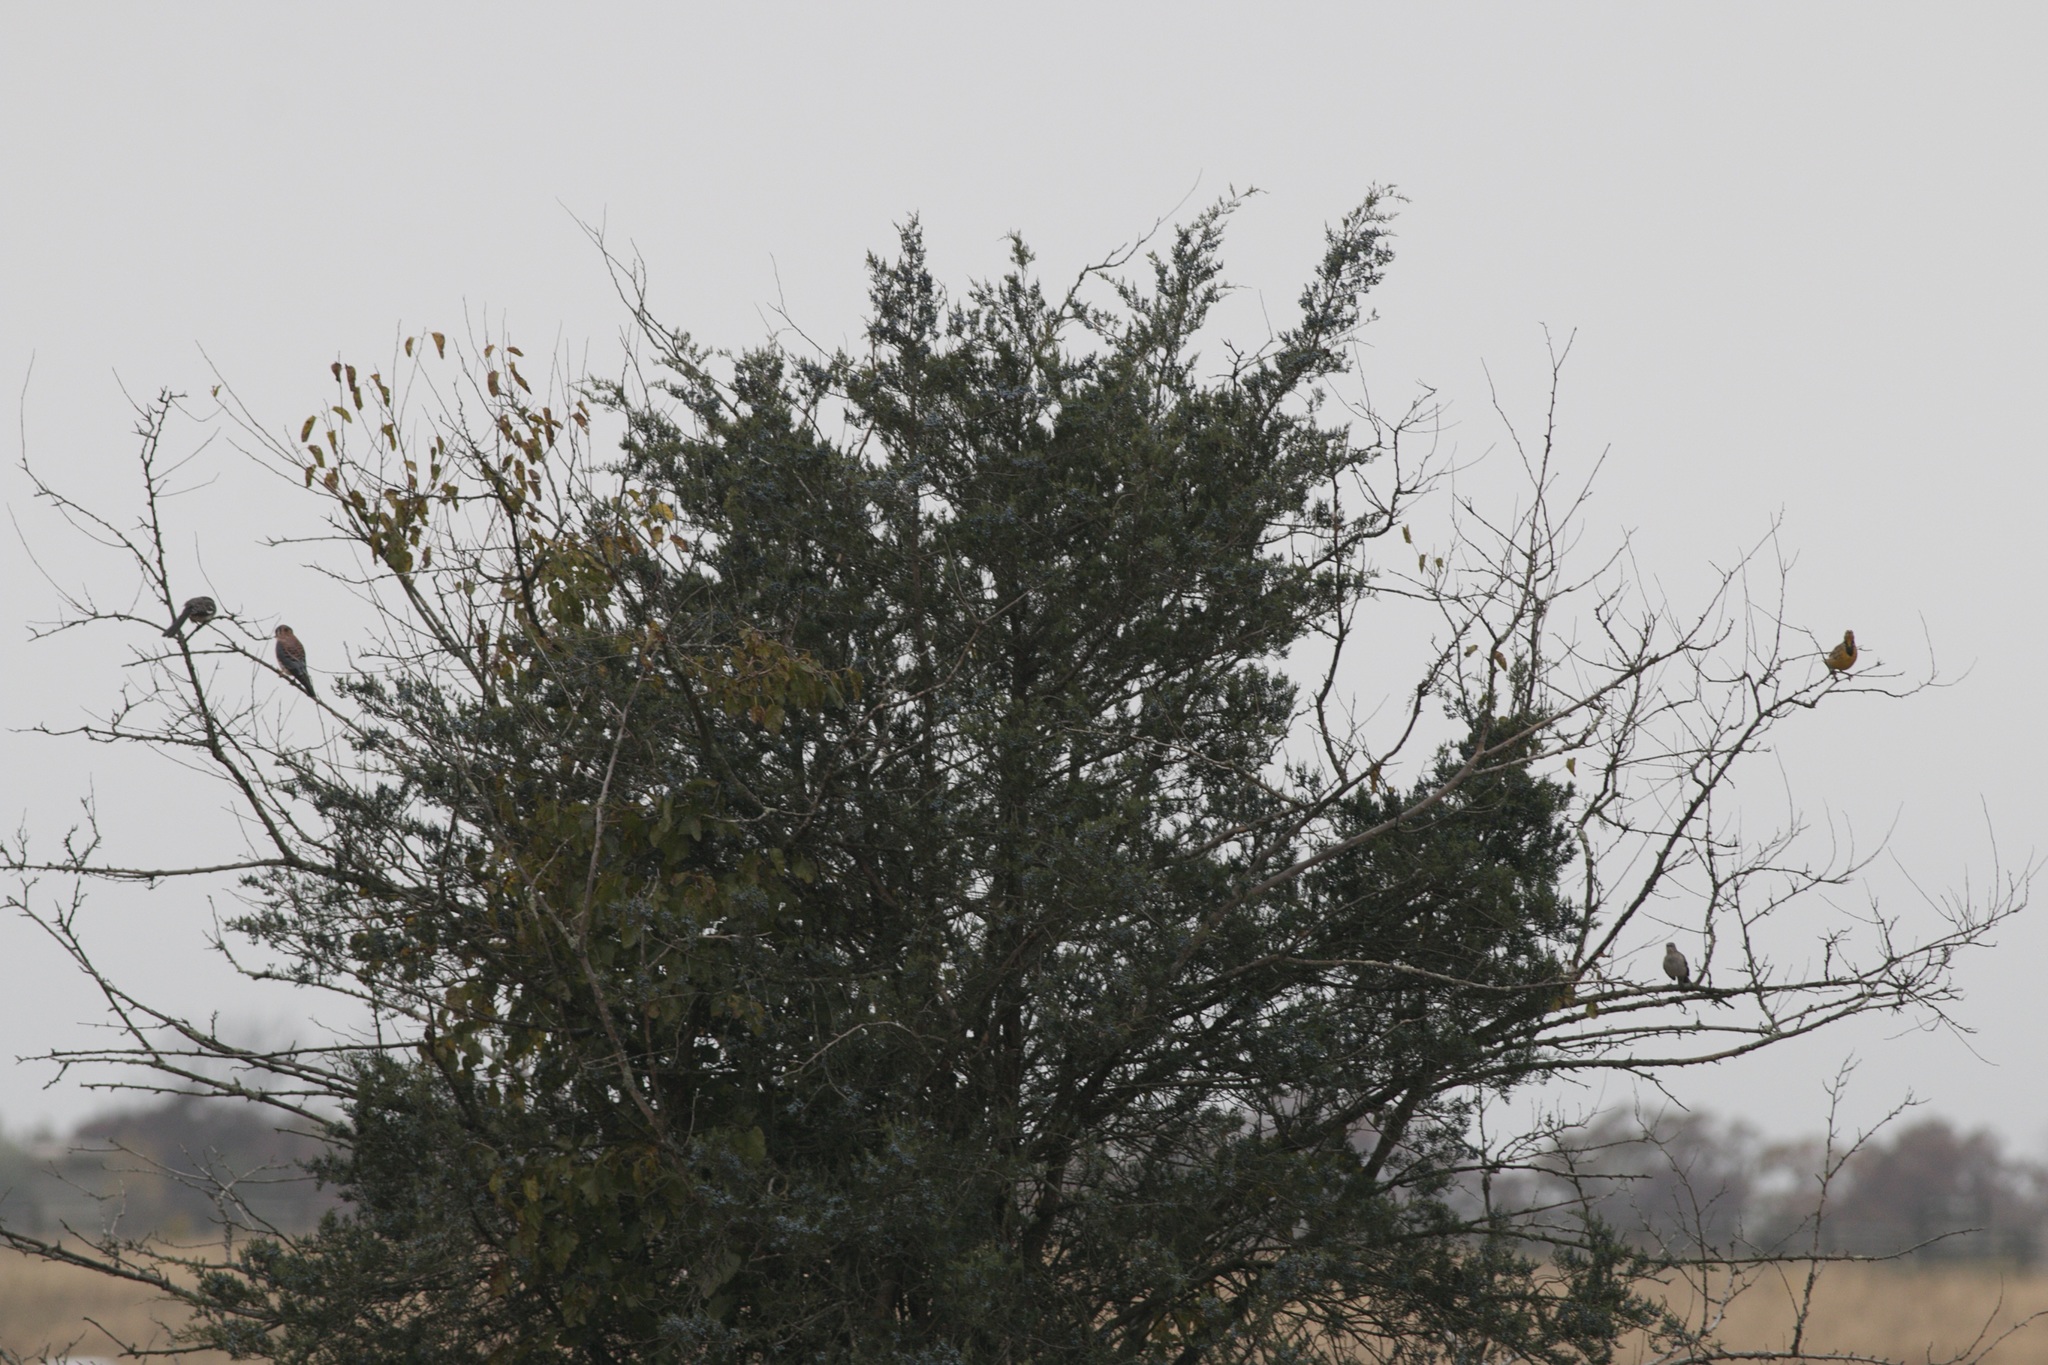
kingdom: Animalia
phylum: Chordata
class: Aves
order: Passeriformes
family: Icteridae
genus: Sturnella
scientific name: Sturnella magna
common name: Eastern meadowlark
